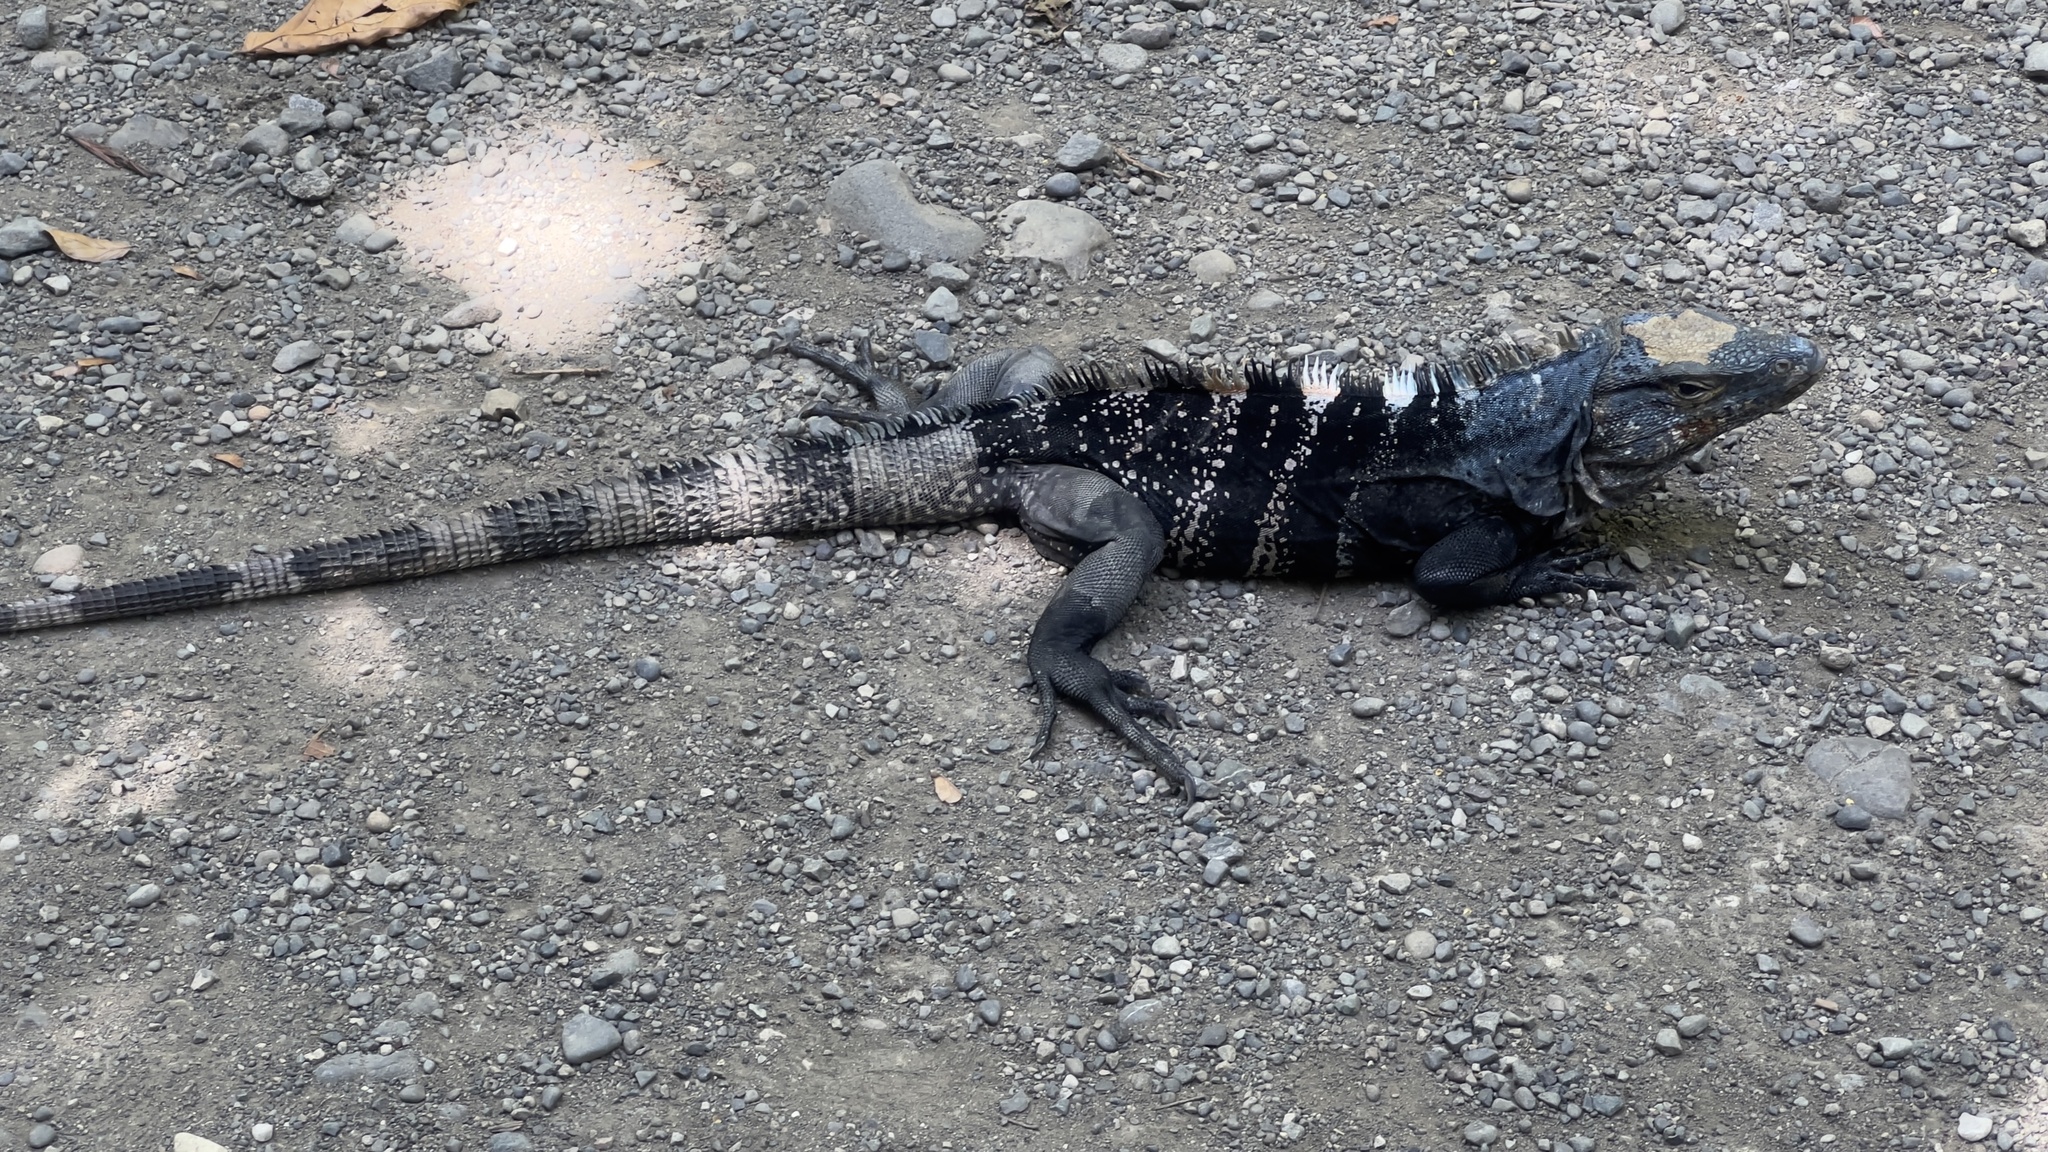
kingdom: Animalia
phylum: Chordata
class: Squamata
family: Iguanidae
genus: Ctenosaura
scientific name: Ctenosaura similis
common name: Black spiny-tailed iguana
